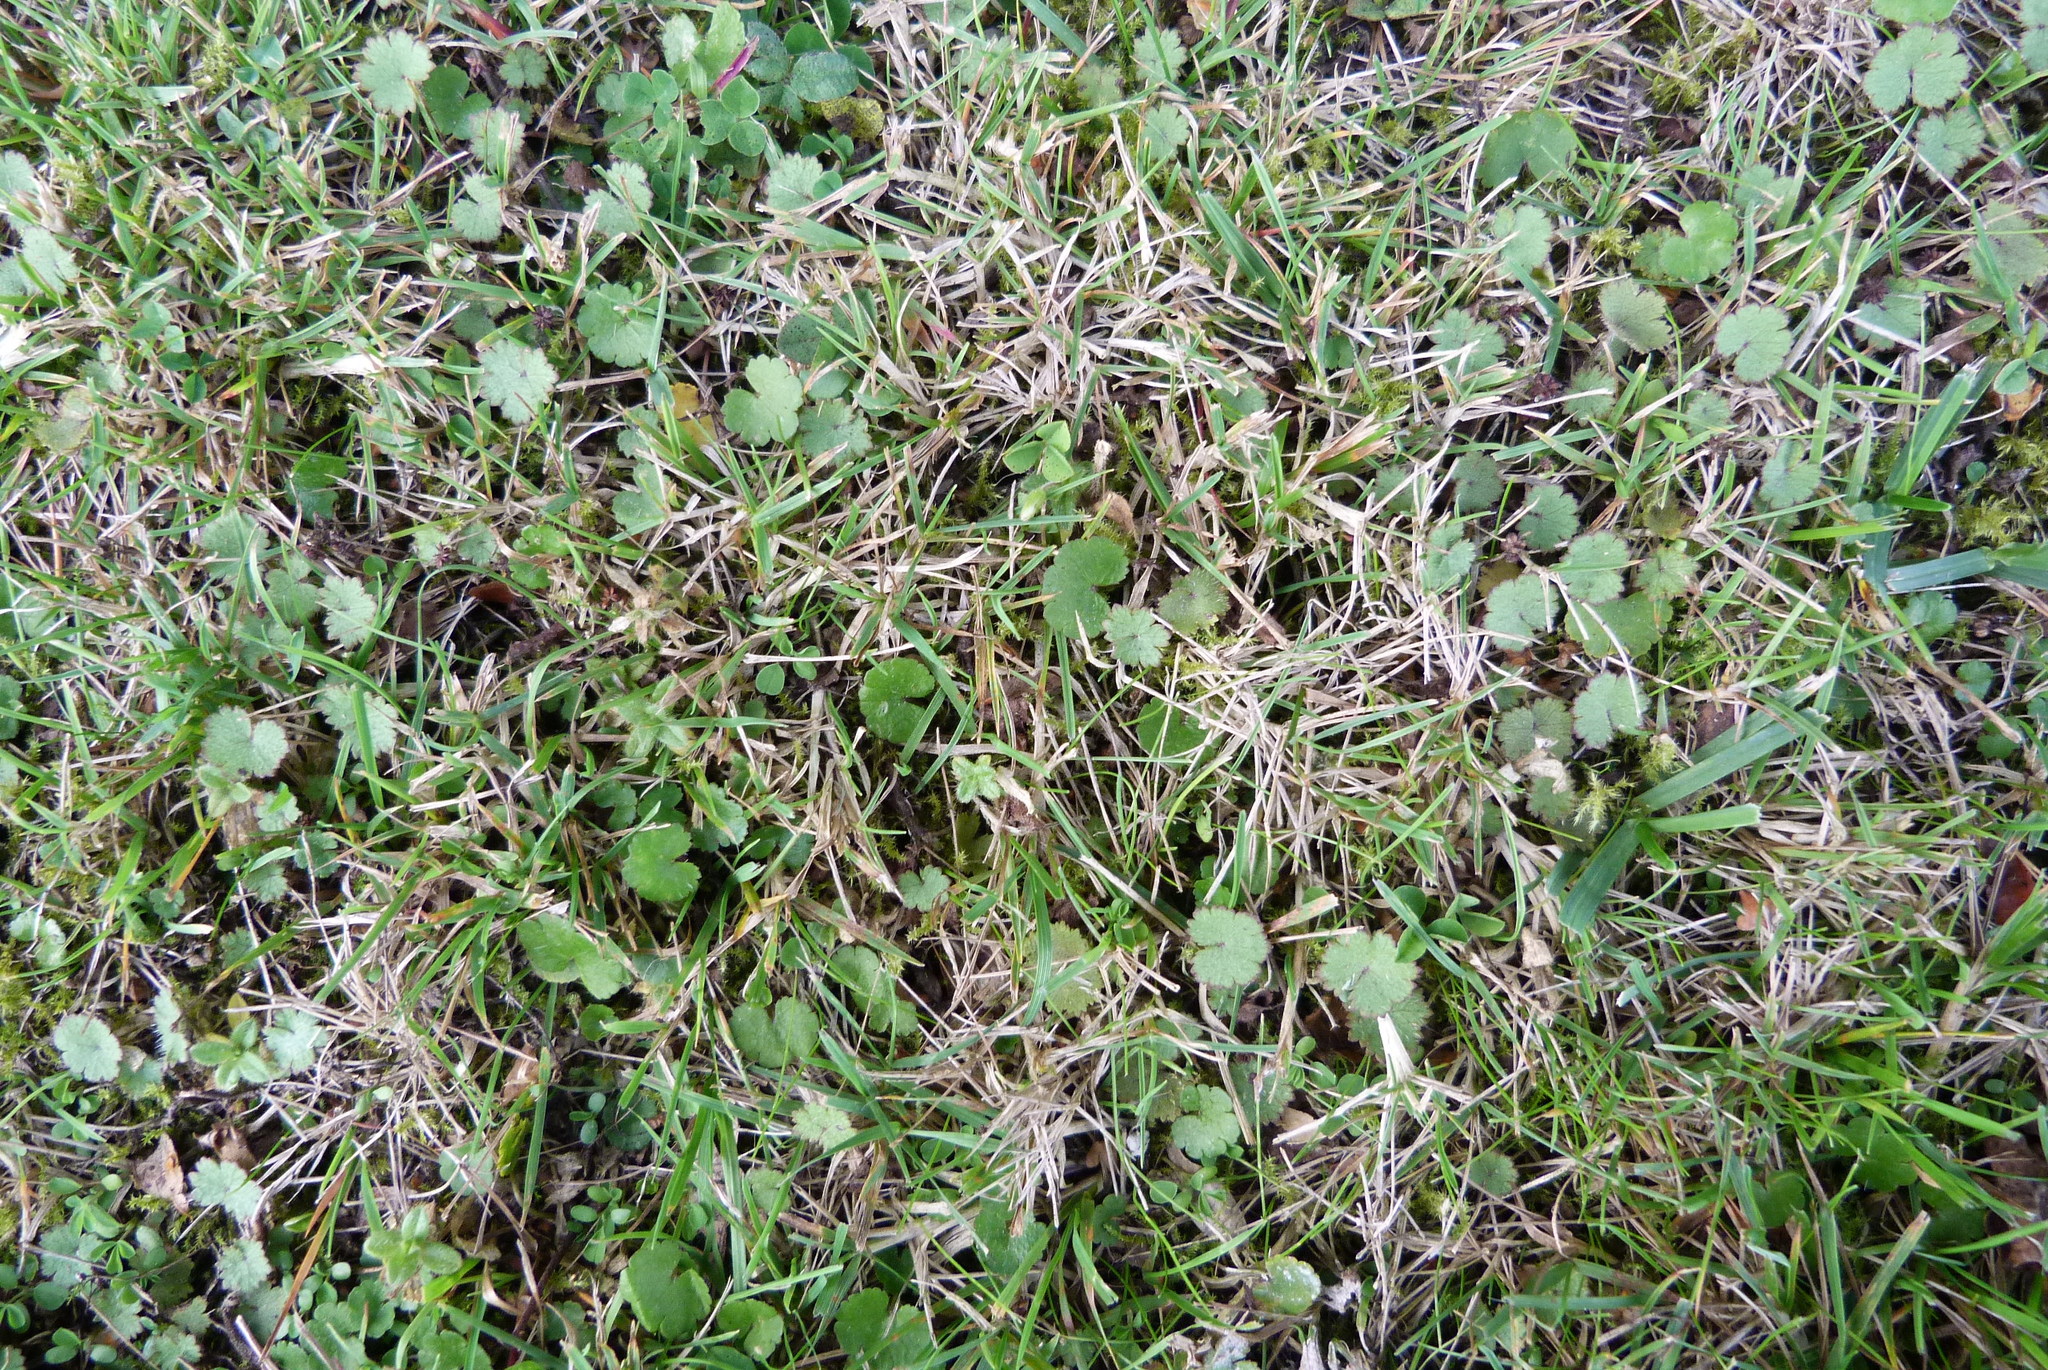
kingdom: Plantae
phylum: Tracheophyta
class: Magnoliopsida
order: Apiales
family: Araliaceae
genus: Hydrocotyle
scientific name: Hydrocotyle moschata
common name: Hairy pennywort
